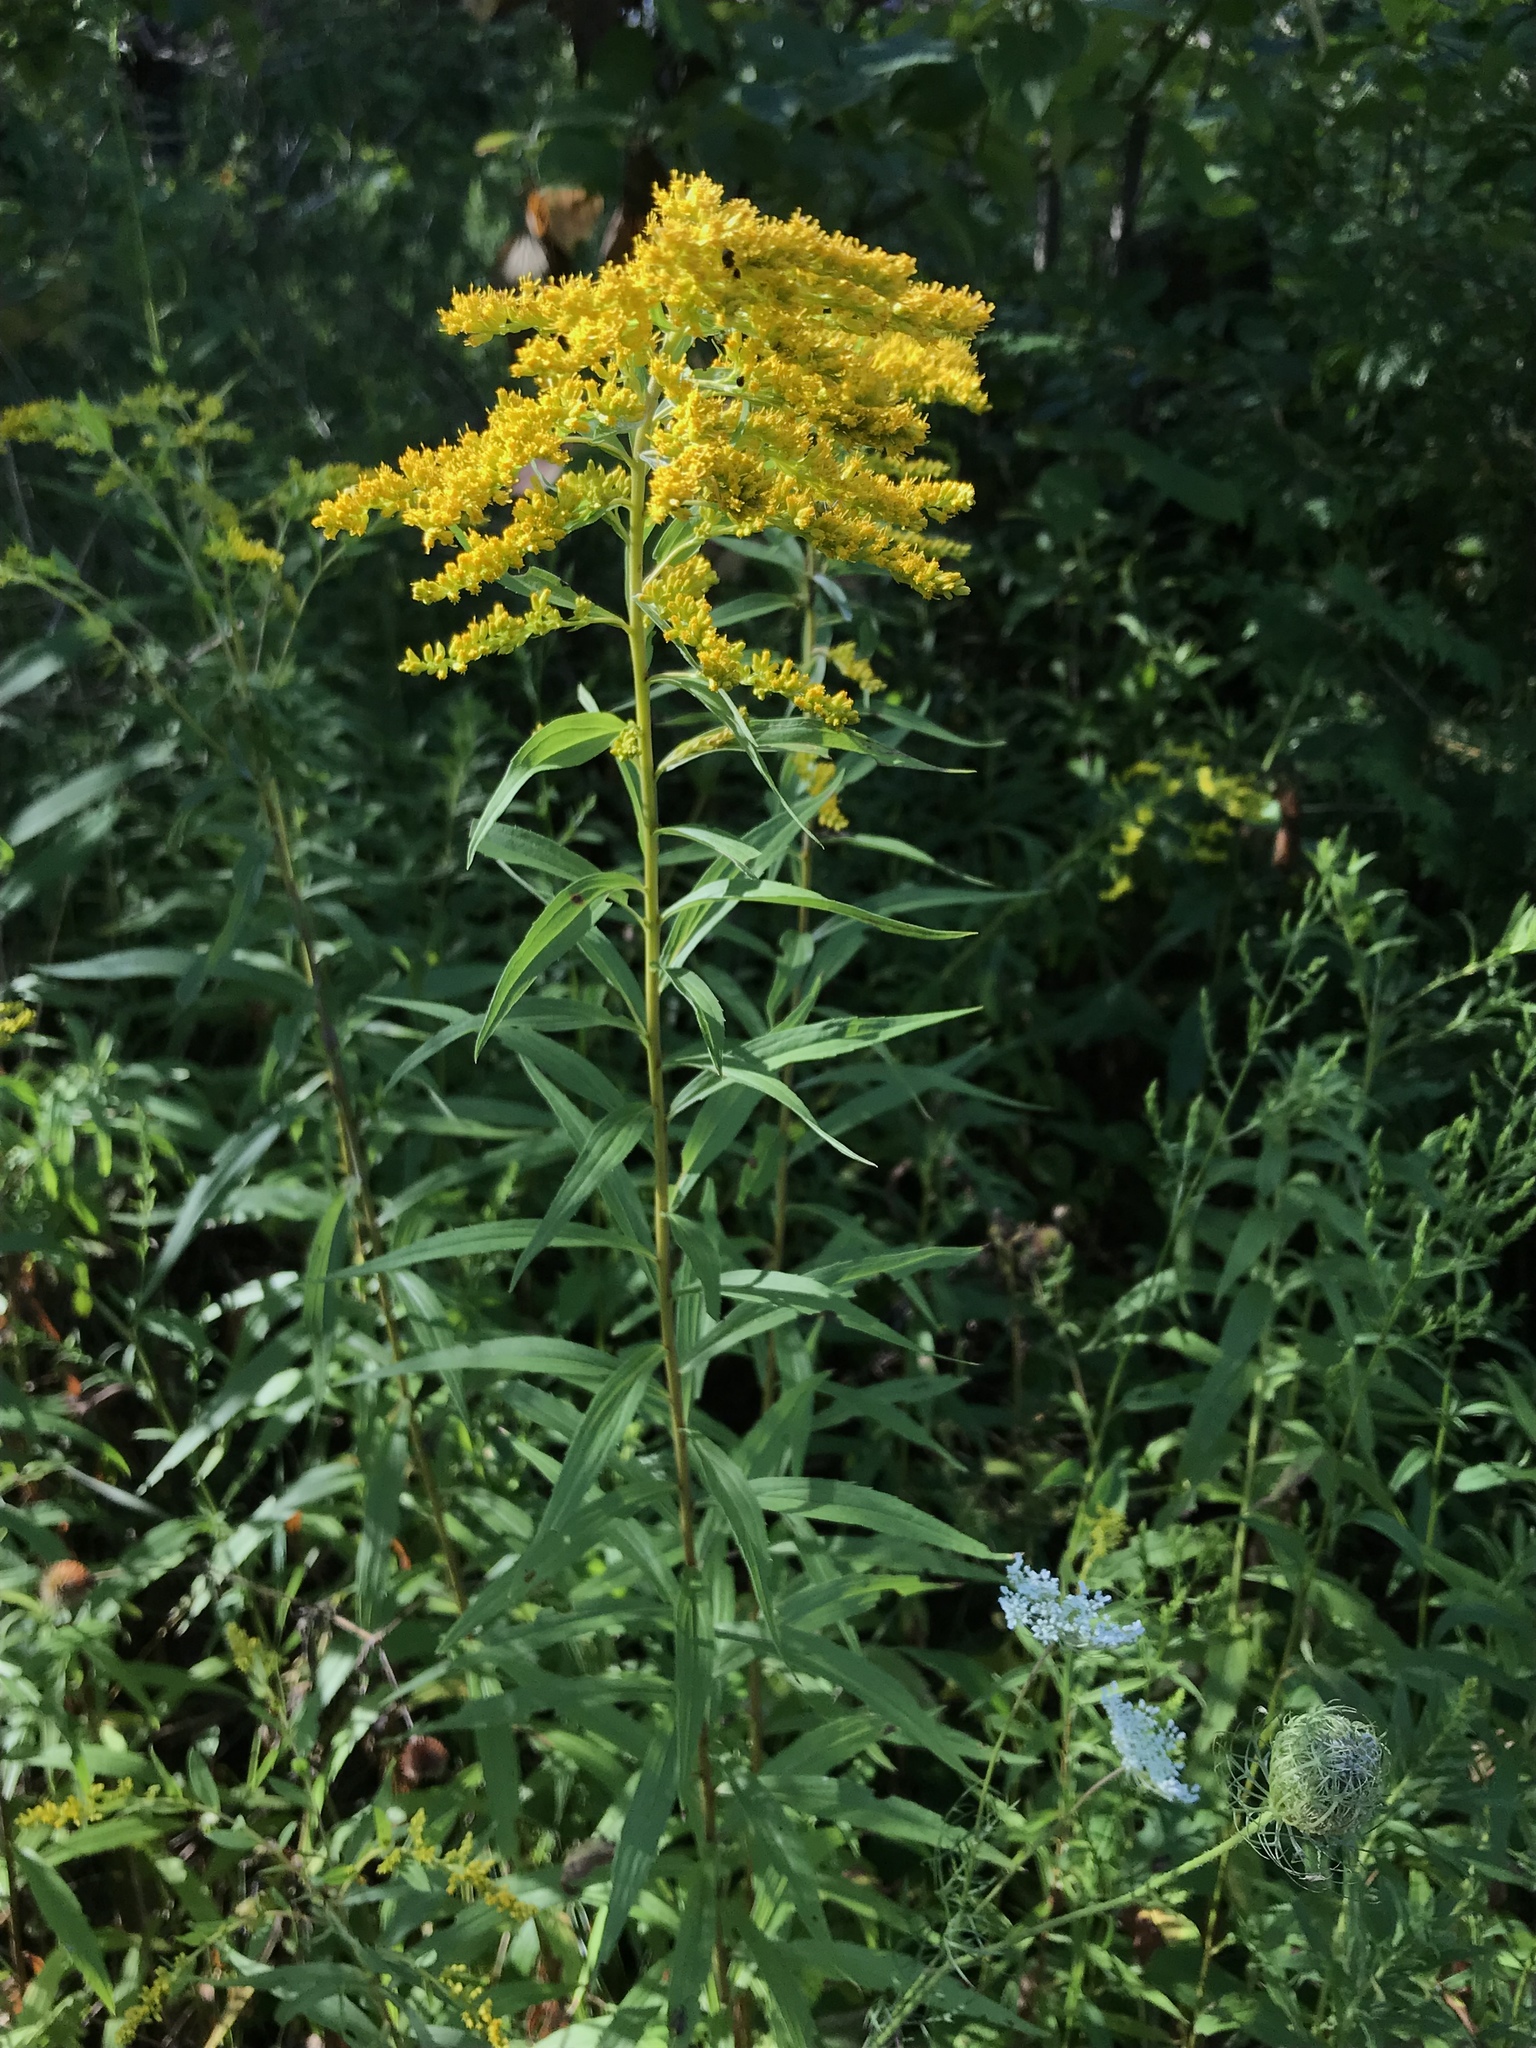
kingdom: Plantae
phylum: Tracheophyta
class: Magnoliopsida
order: Asterales
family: Asteraceae
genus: Solidago
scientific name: Solidago canadensis
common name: Canada goldenrod
